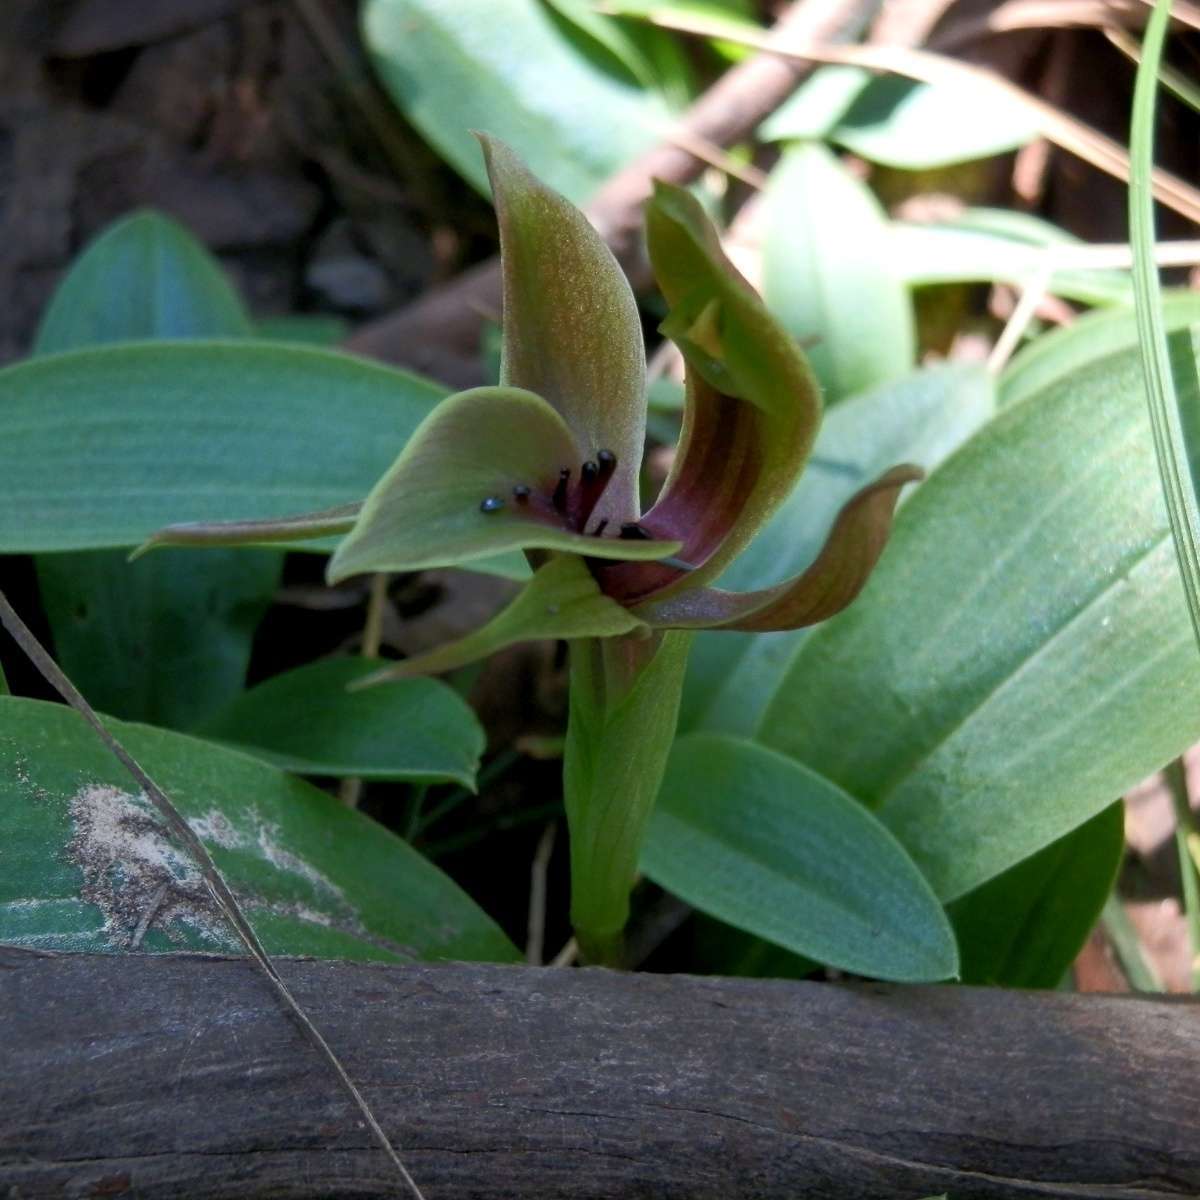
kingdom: Plantae
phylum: Tracheophyta
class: Liliopsida
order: Asparagales
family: Orchidaceae
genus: Chiloglottis
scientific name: Chiloglottis valida
